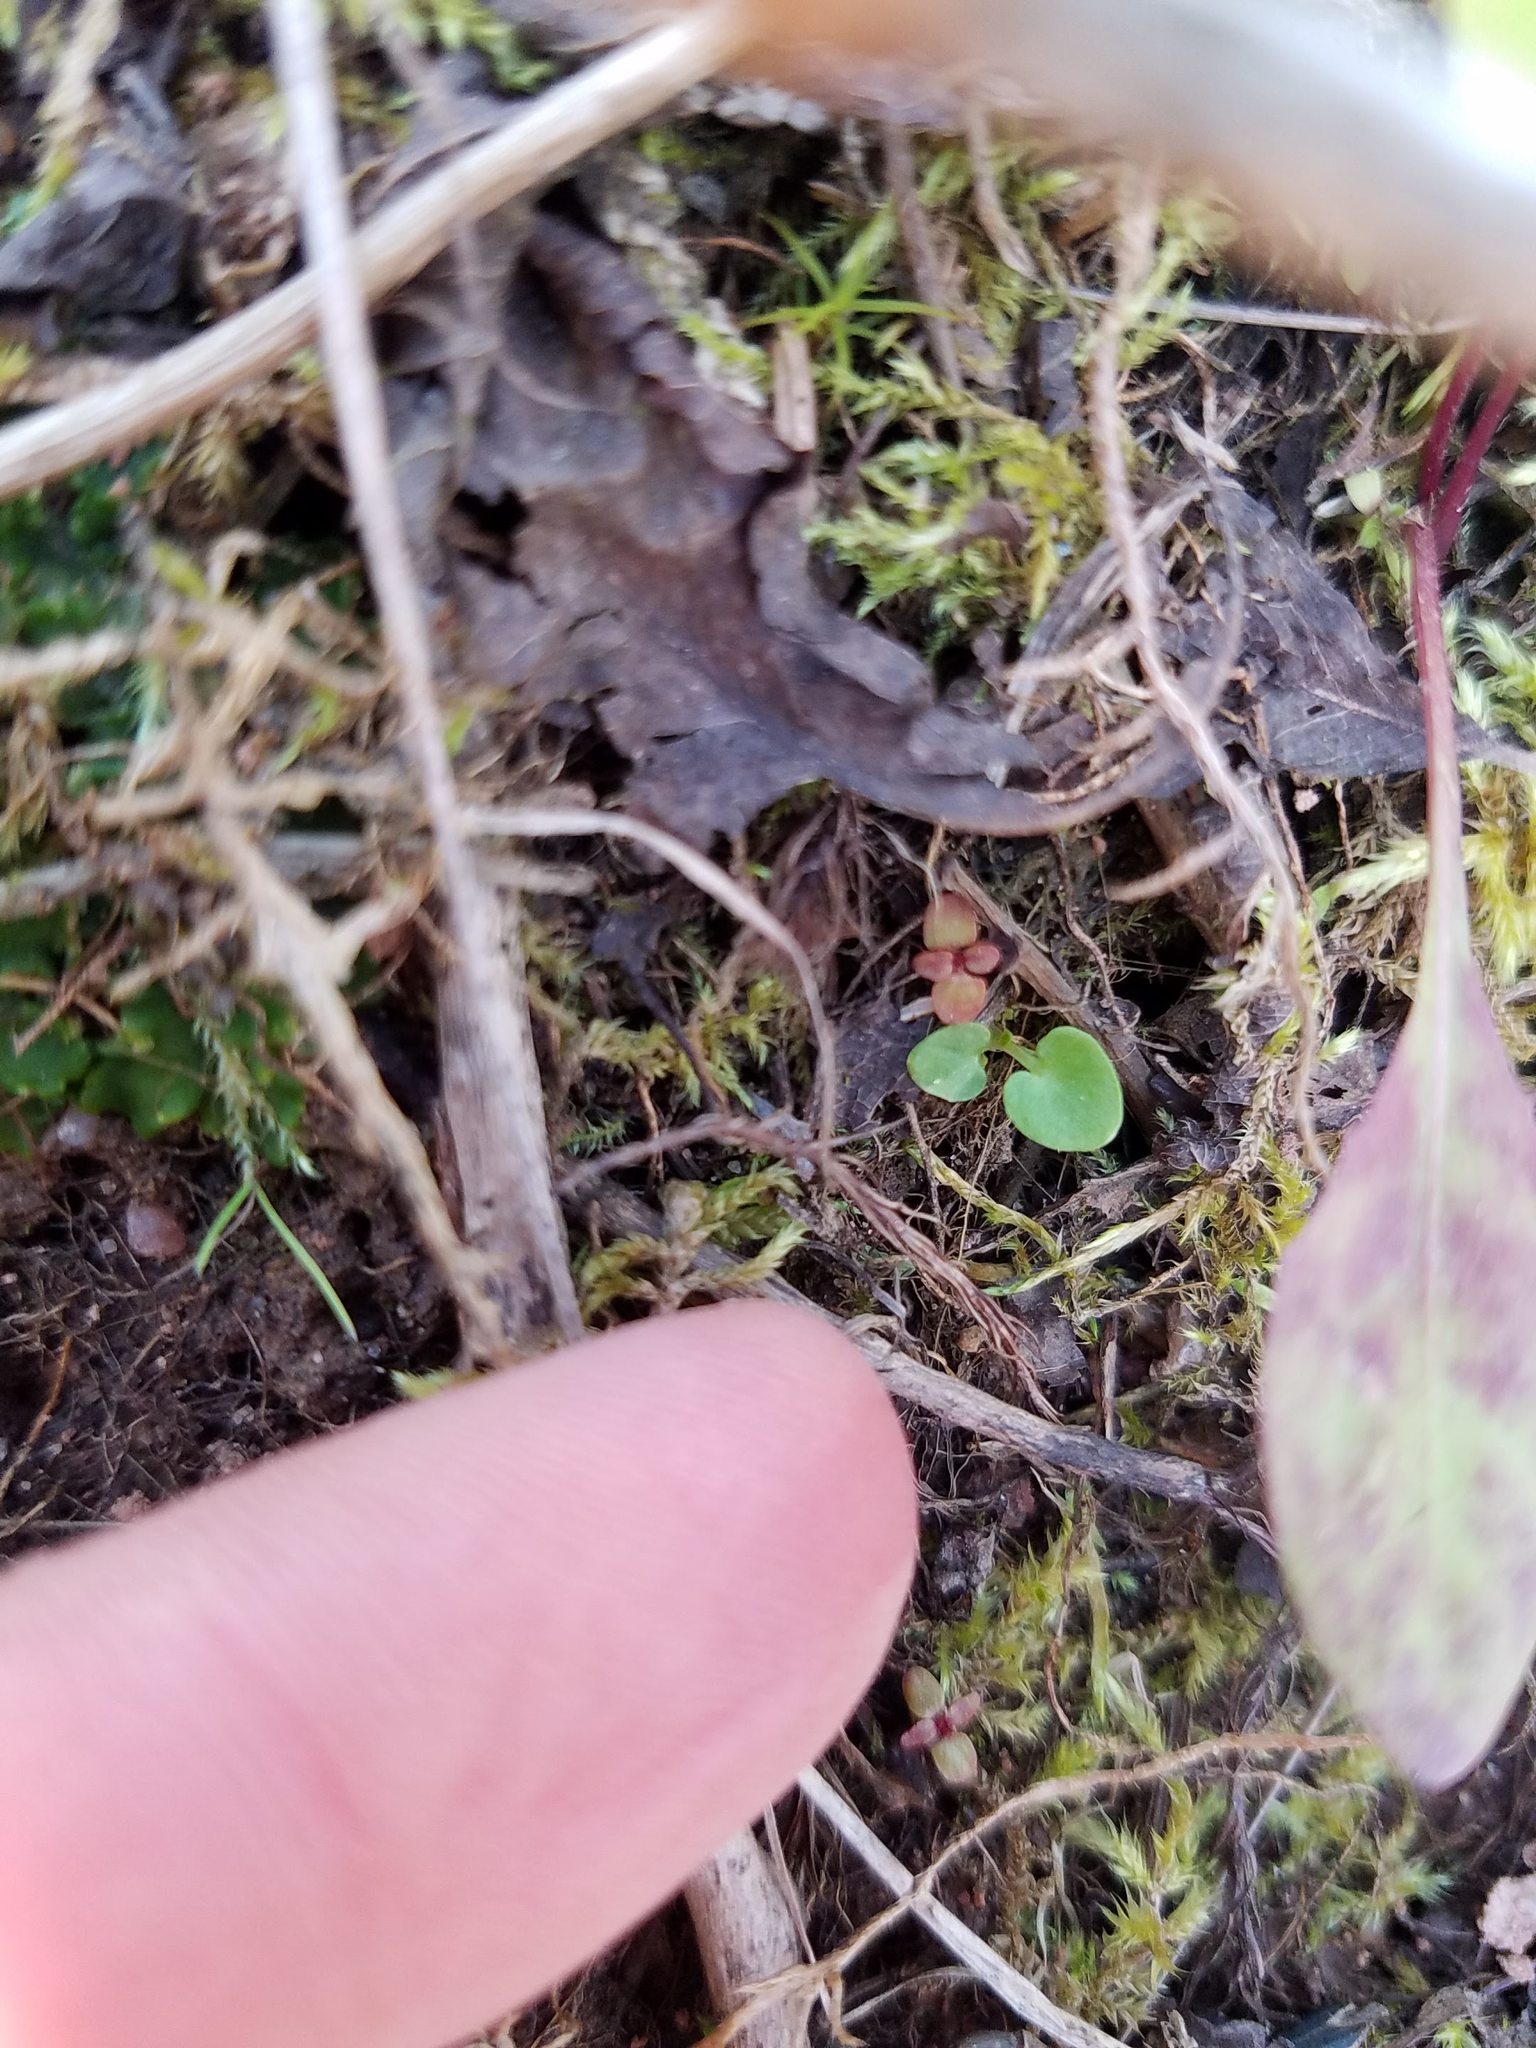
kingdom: Plantae
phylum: Tracheophyta
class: Magnoliopsida
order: Celastrales
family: Parnassiaceae
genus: Parnassia
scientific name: Parnassia palustris
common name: Grass-of-parnassus
